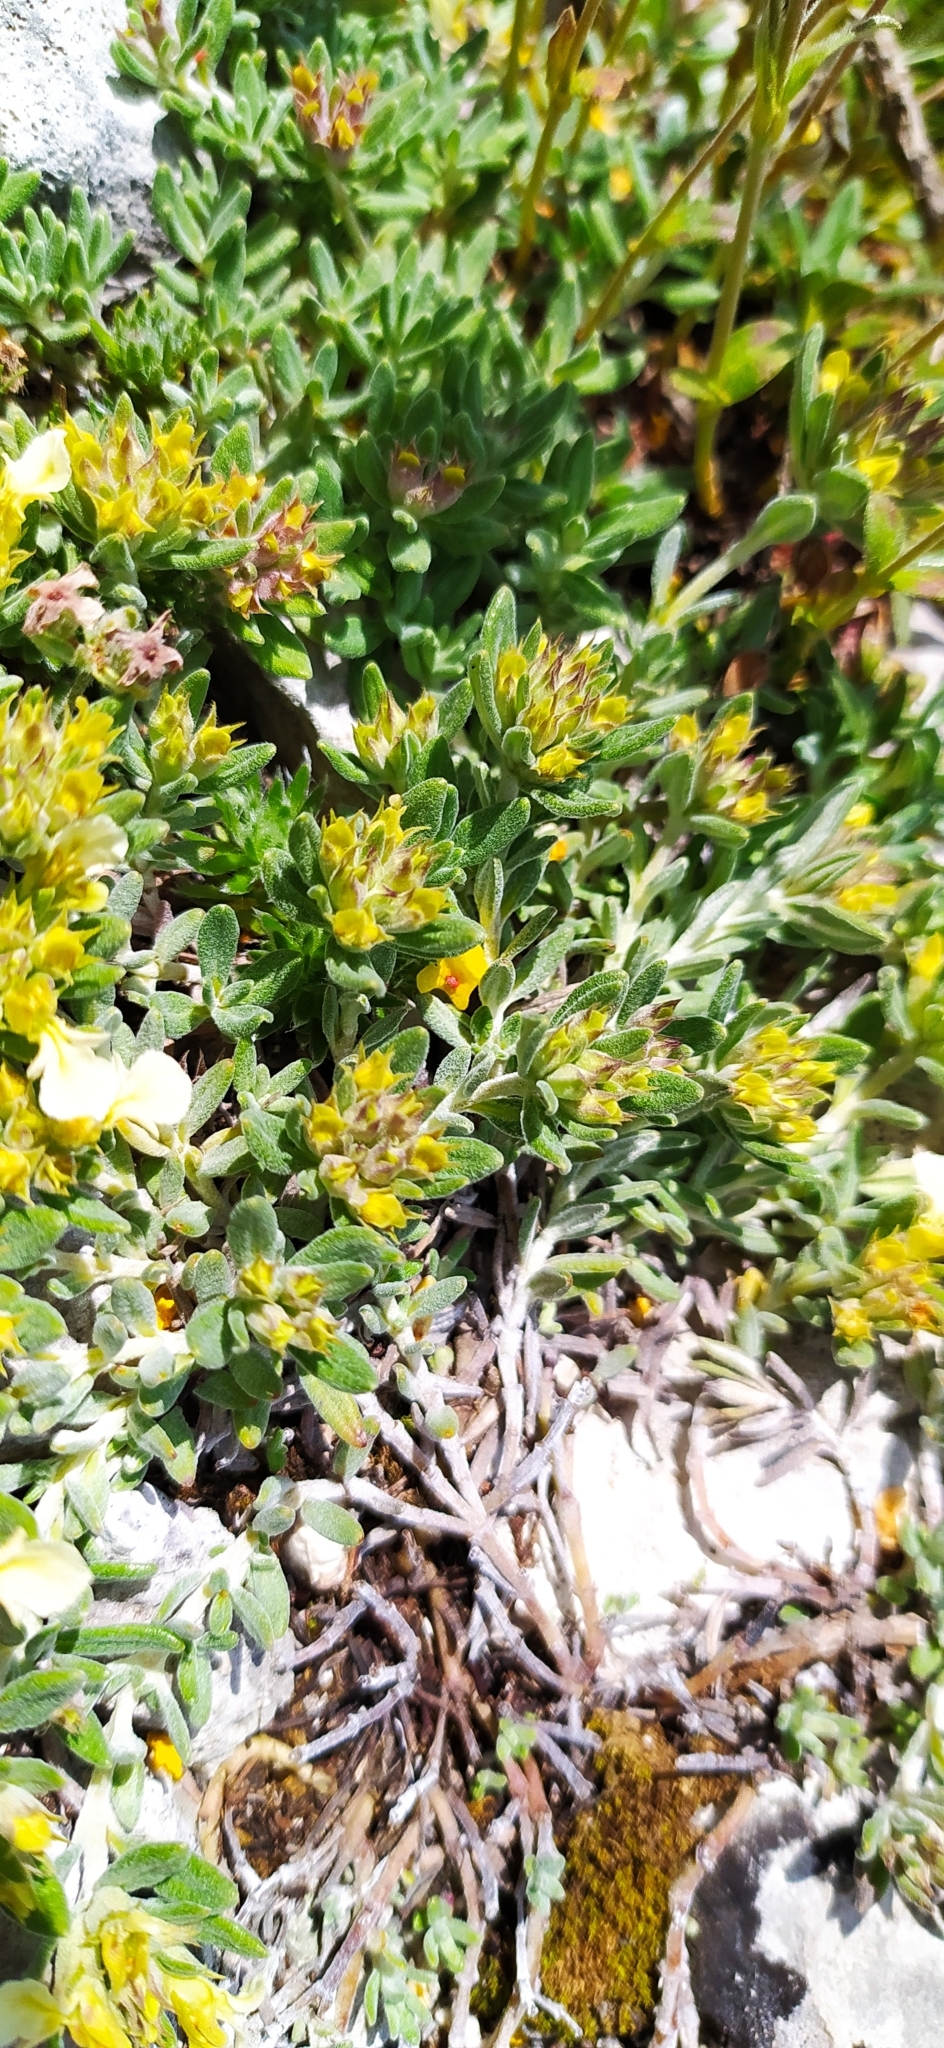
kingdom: Plantae
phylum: Tracheophyta
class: Magnoliopsida
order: Lamiales
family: Lamiaceae
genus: Teucrium
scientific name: Teucrium montanum
